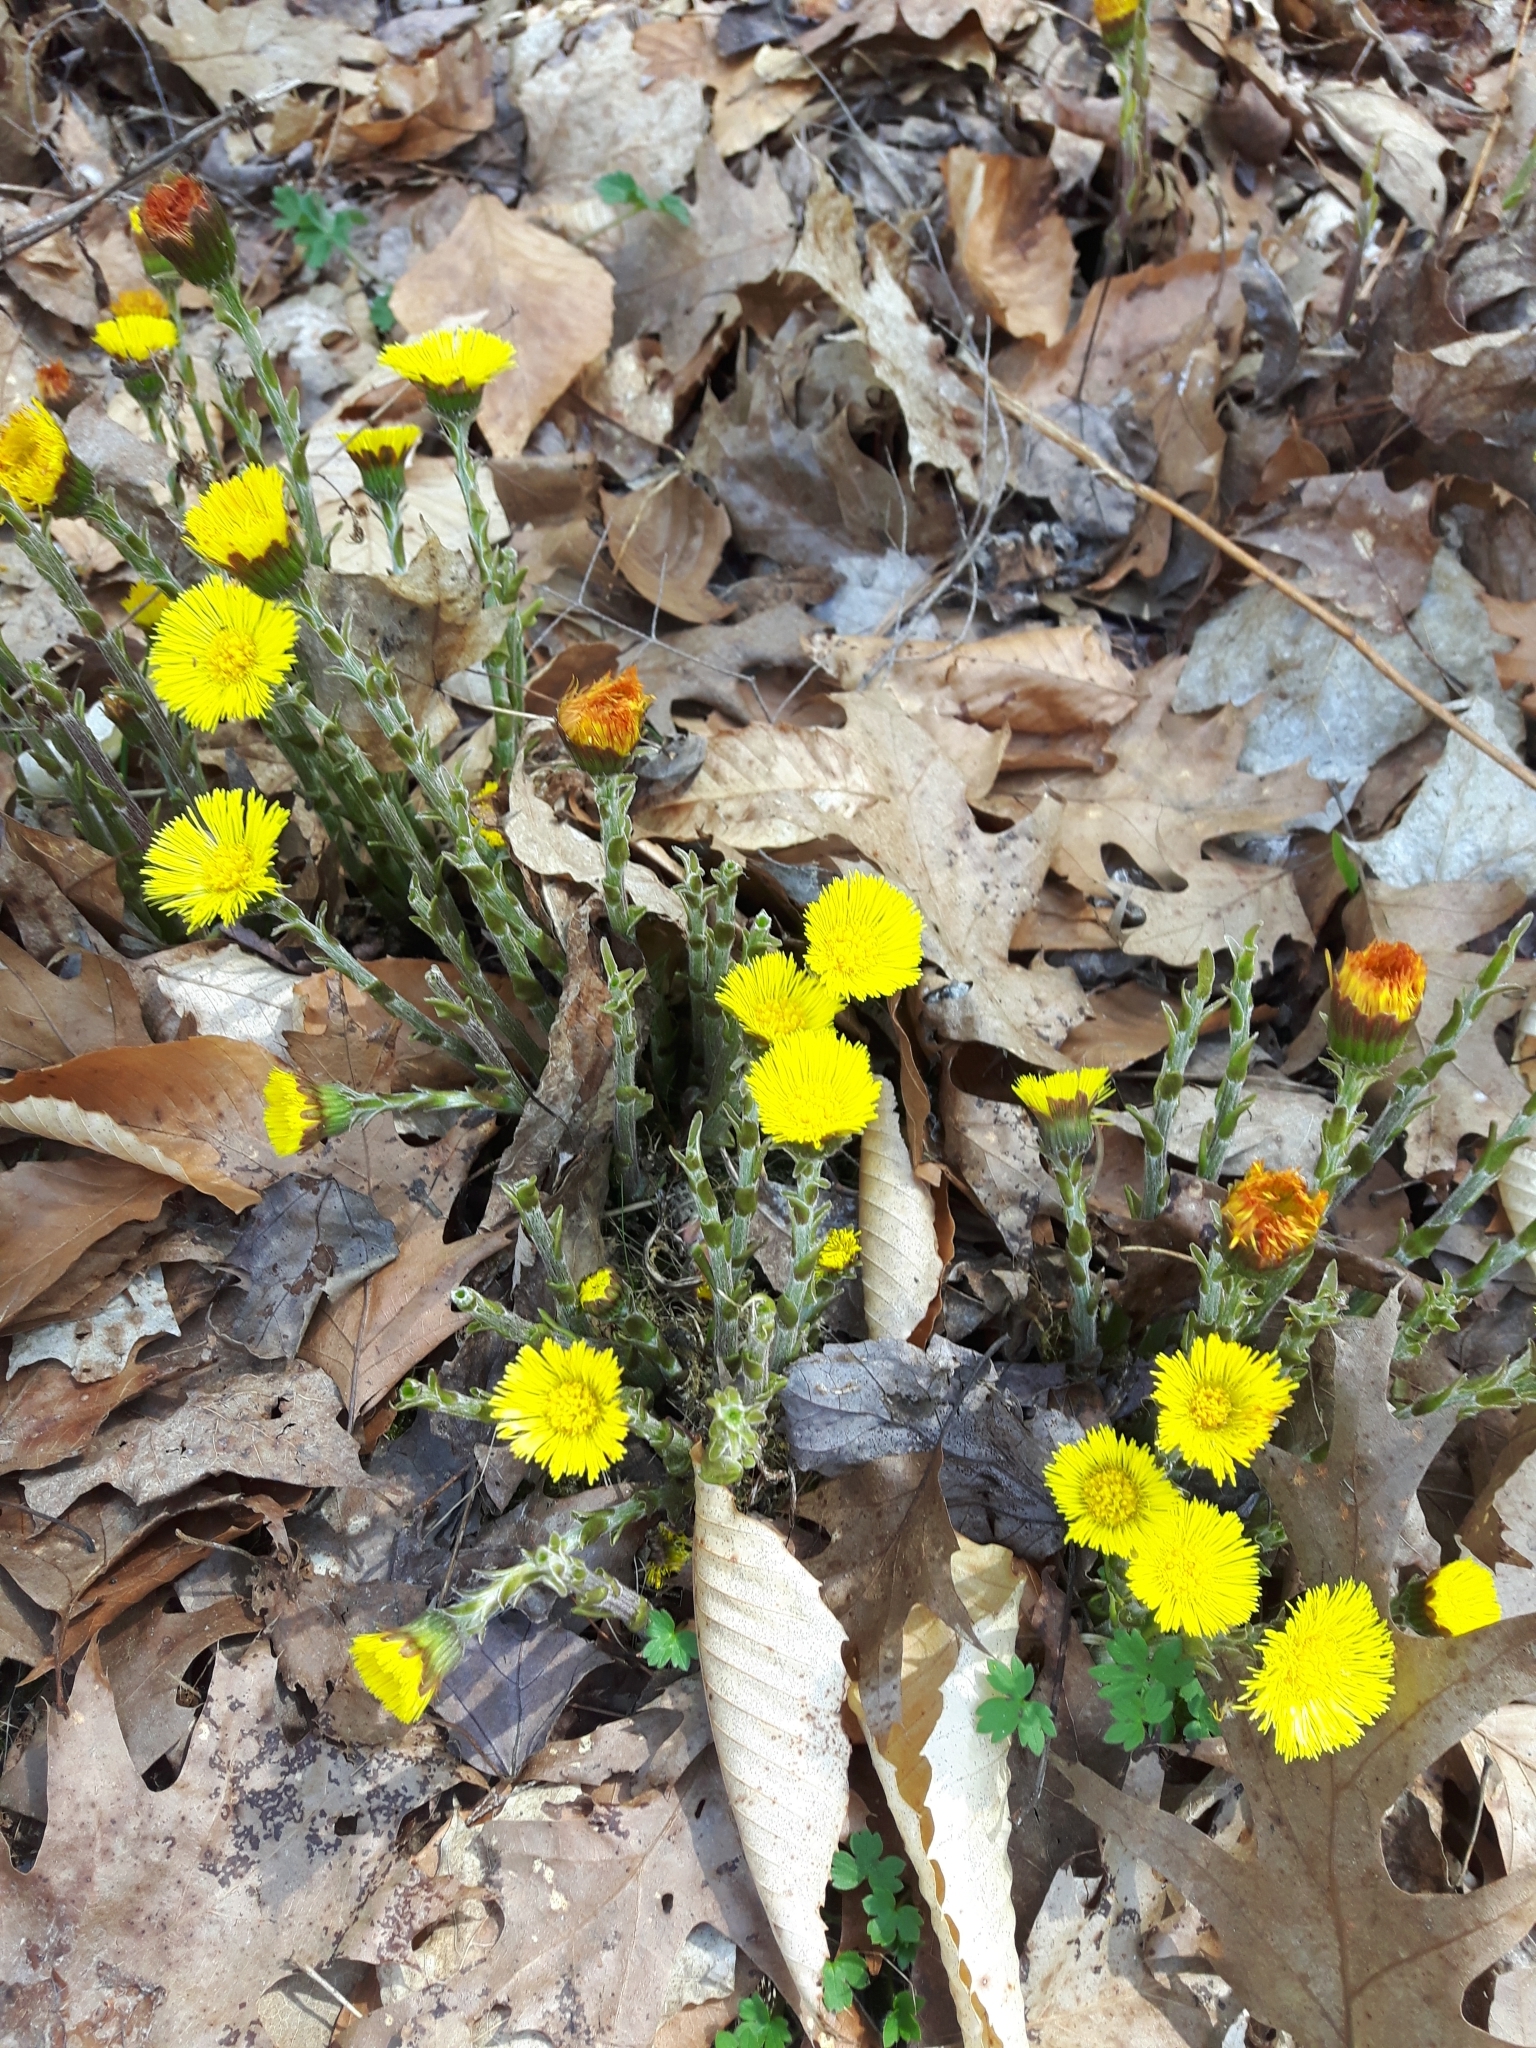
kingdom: Plantae
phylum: Tracheophyta
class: Magnoliopsida
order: Asterales
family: Asteraceae
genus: Tussilago
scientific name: Tussilago farfara
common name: Coltsfoot
